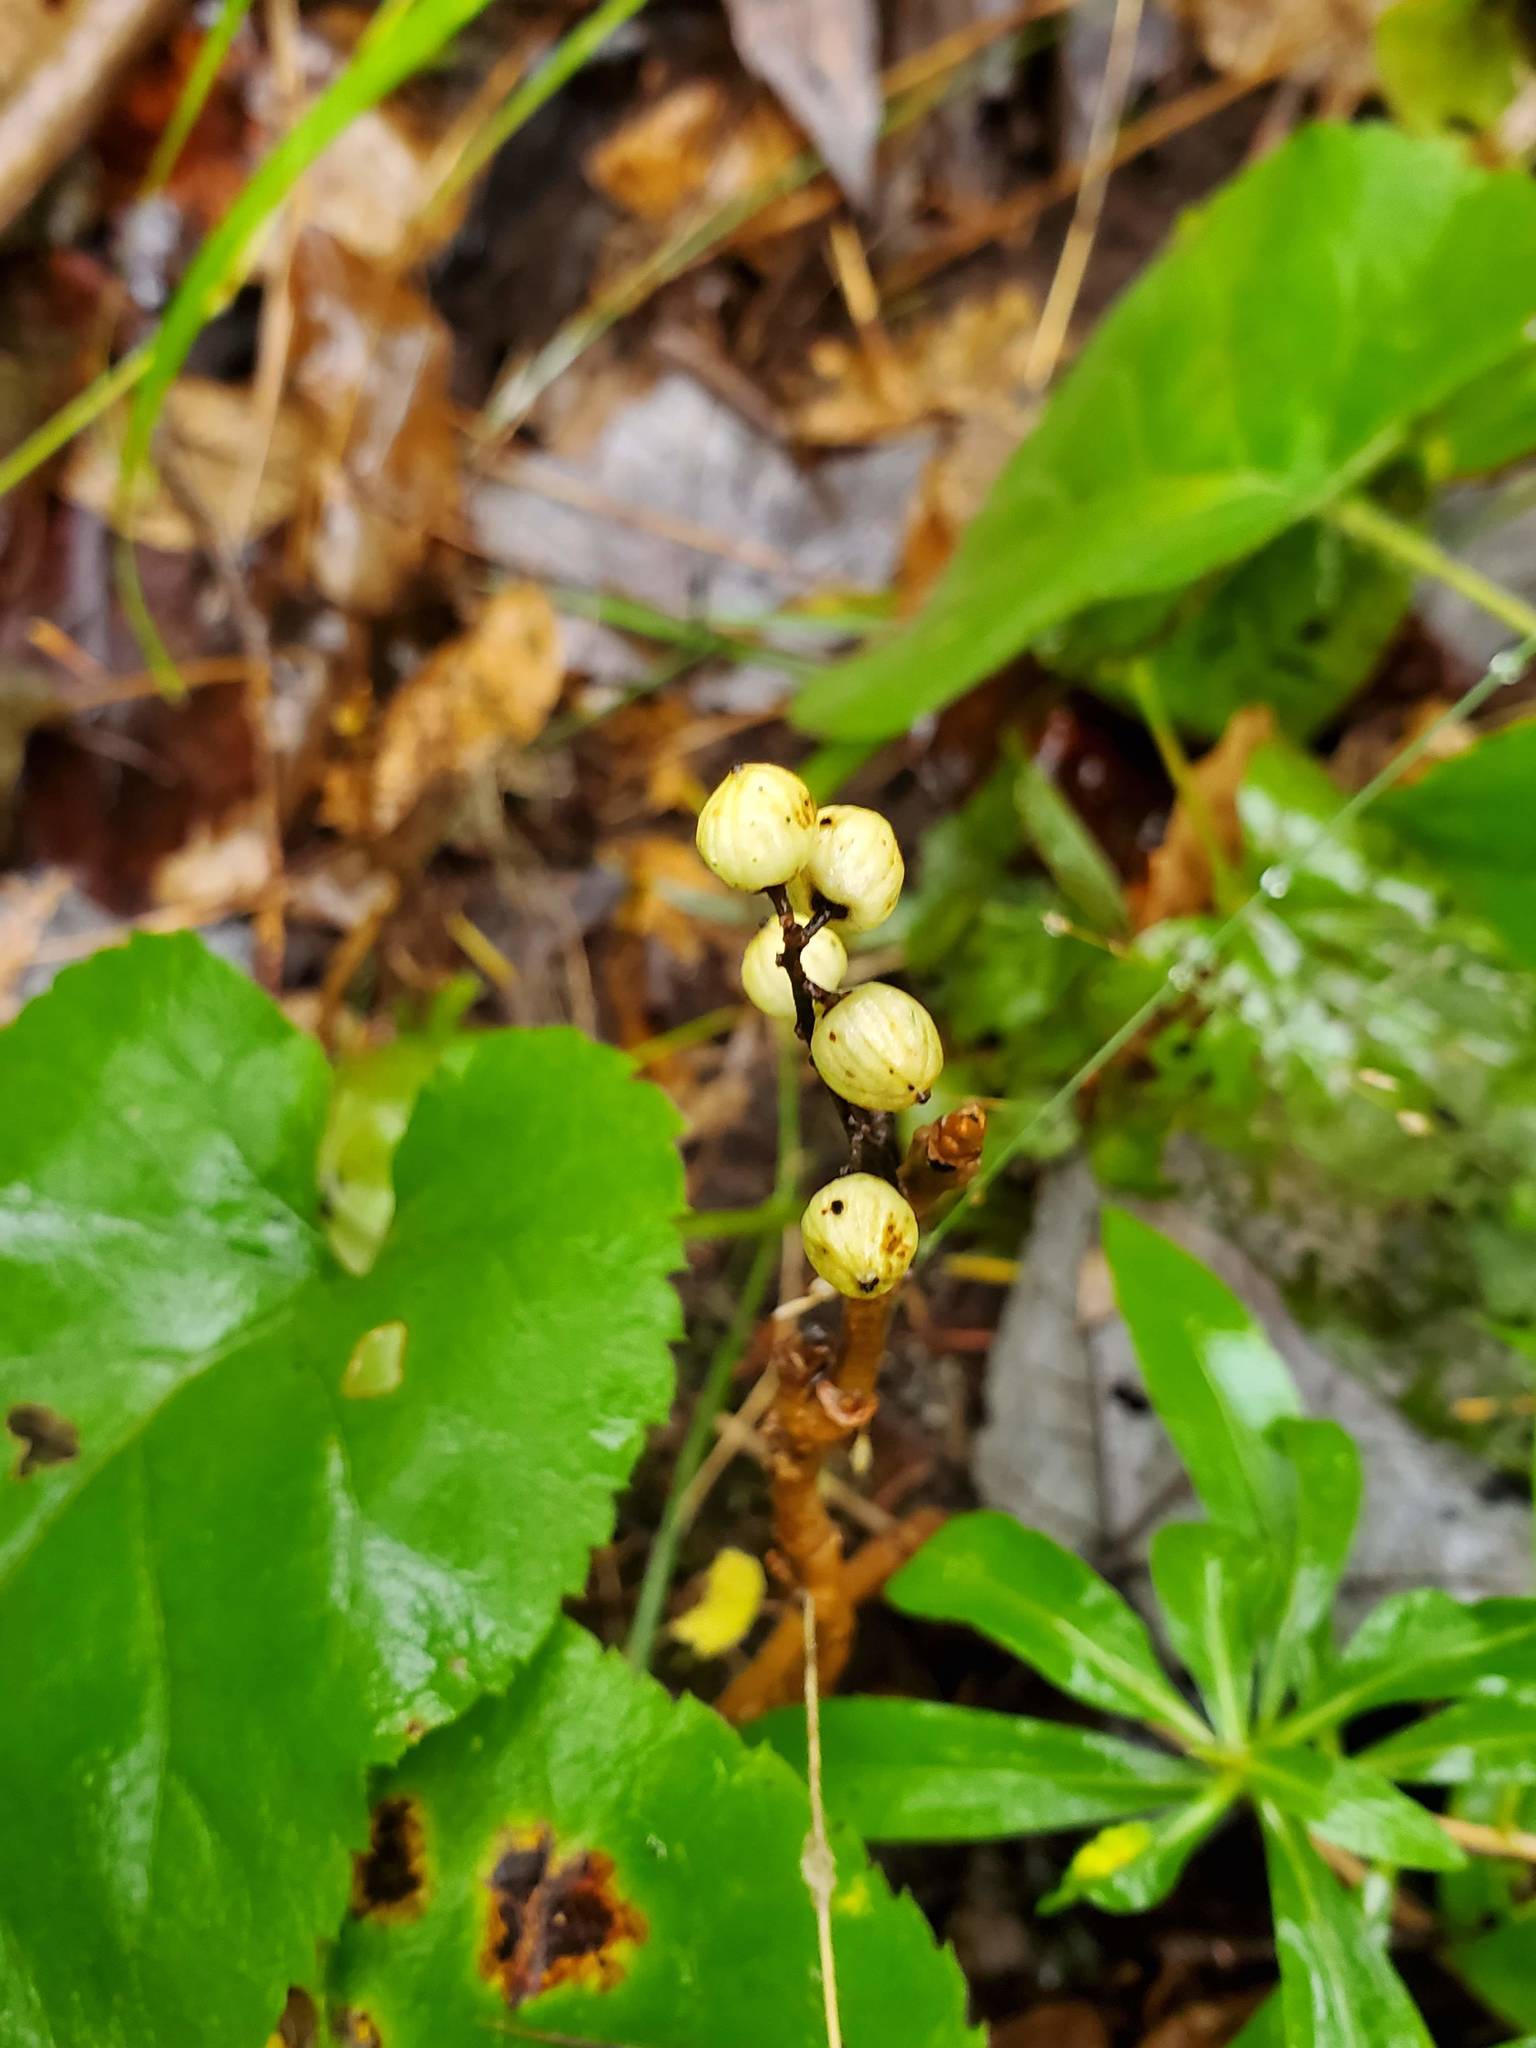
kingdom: Plantae
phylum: Tracheophyta
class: Magnoliopsida
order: Sapindales
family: Anacardiaceae
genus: Toxicodendron
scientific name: Toxicodendron rydbergii
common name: Rydberg's poison-ivy
